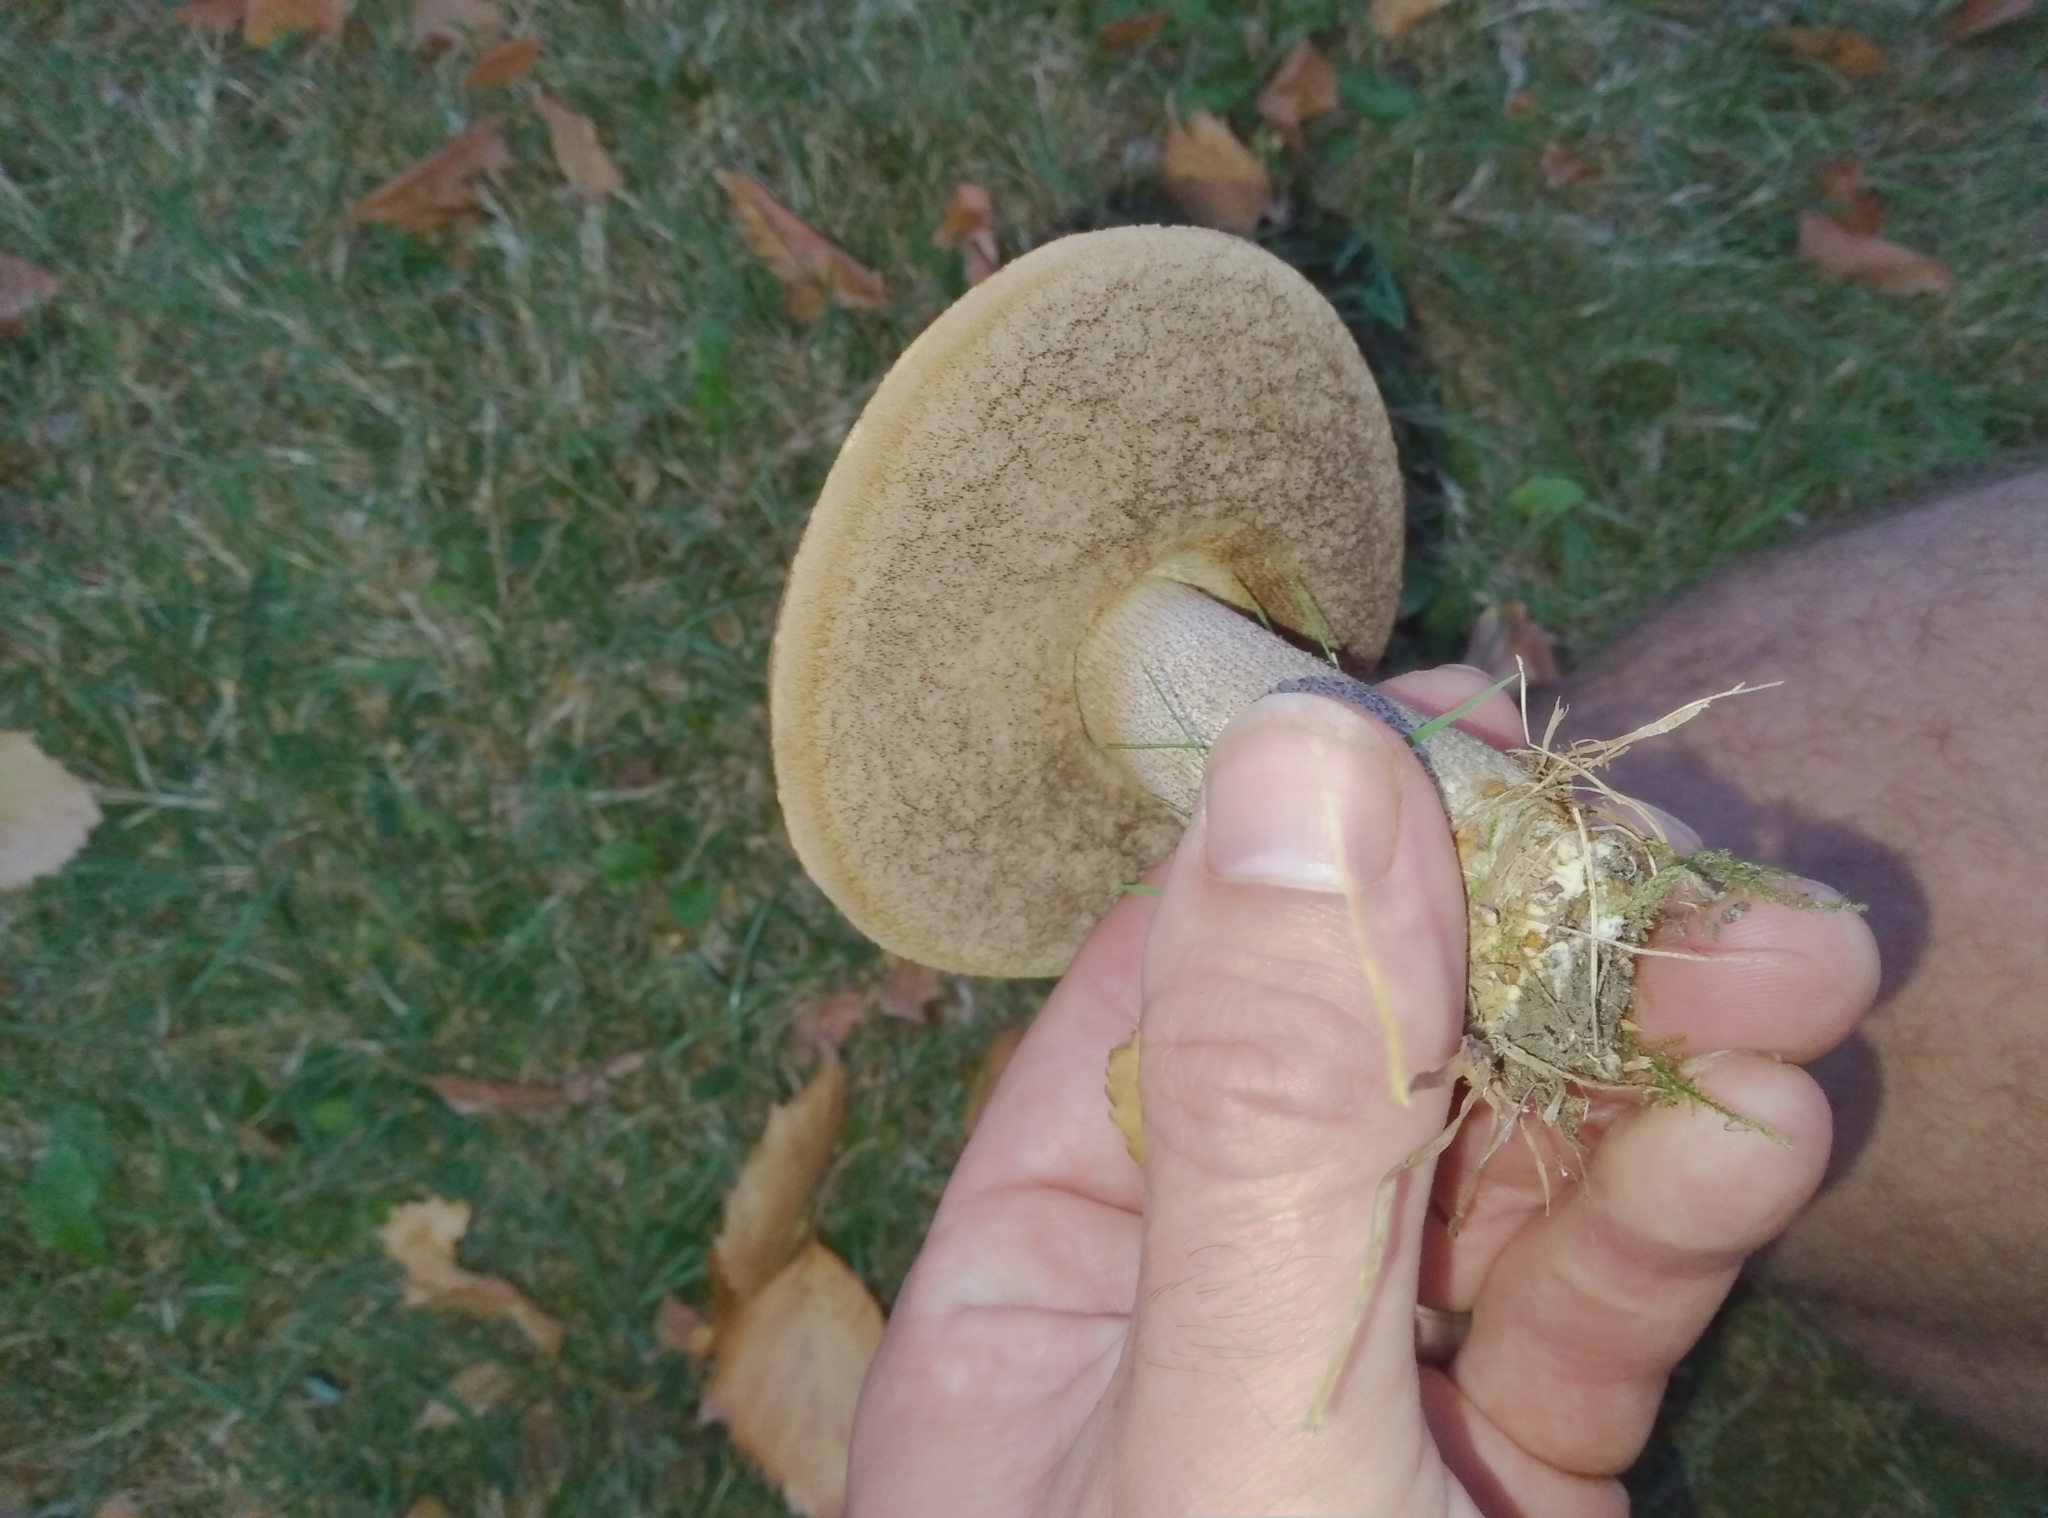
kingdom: Fungi
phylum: Basidiomycota
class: Agaricomycetes
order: Boletales
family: Boletaceae
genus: Leccinum
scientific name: Leccinum scabrum
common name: Blushing bolete
